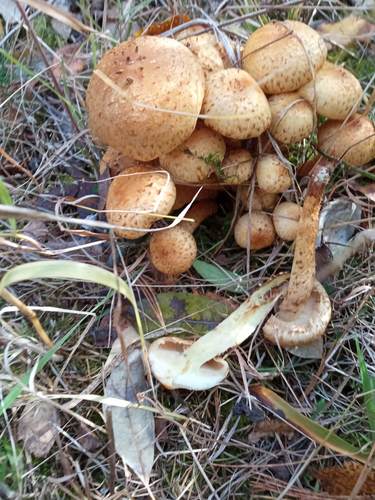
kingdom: Fungi
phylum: Basidiomycota
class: Agaricomycetes
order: Agaricales
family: Strophariaceae
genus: Pholiota
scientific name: Pholiota squarrosa
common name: Shaggy pholiota
